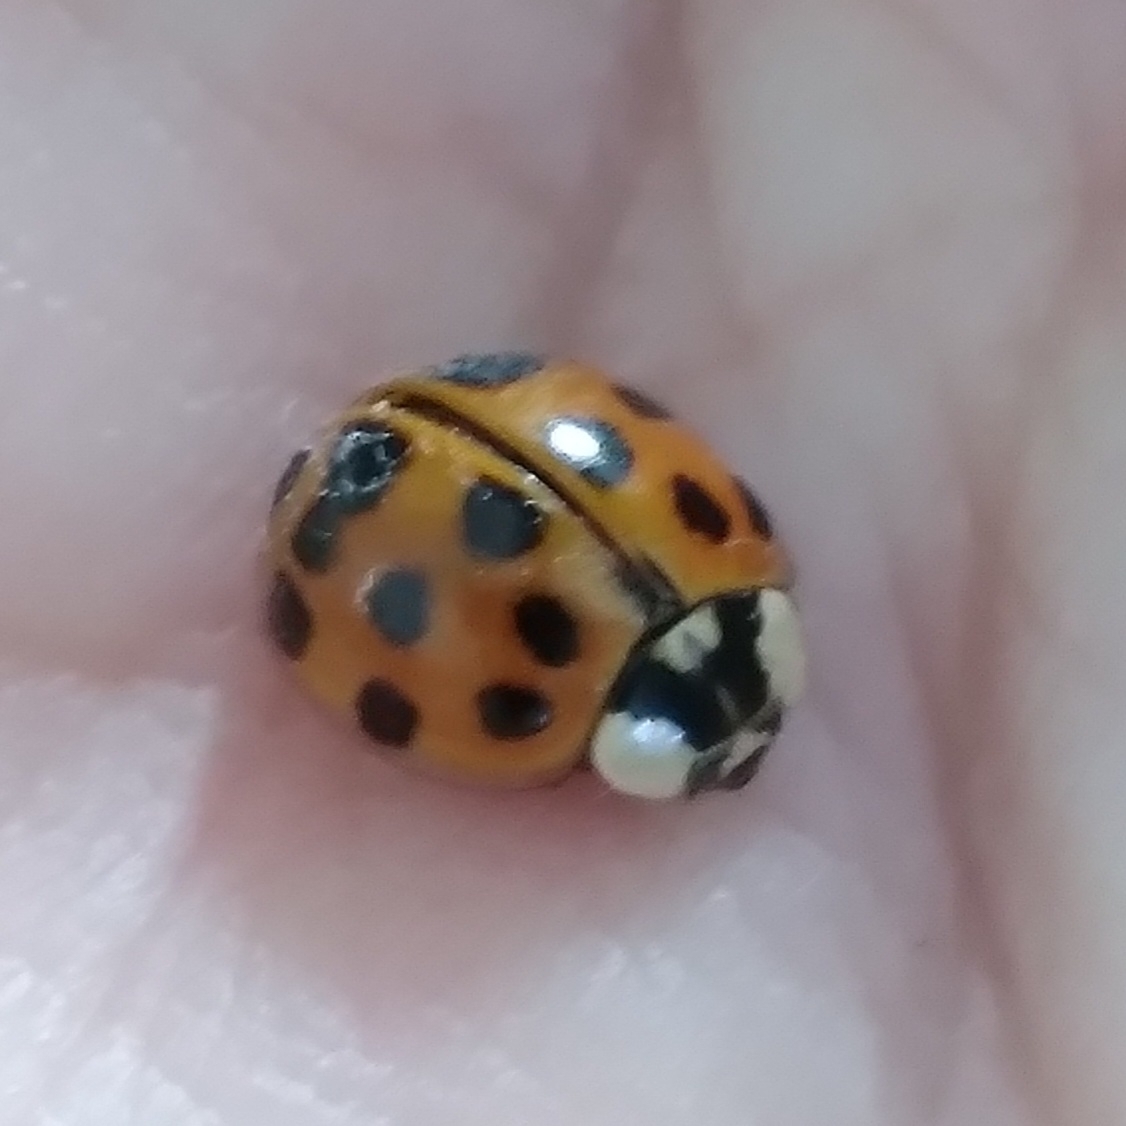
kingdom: Animalia
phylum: Arthropoda
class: Insecta
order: Coleoptera
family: Coccinellidae
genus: Harmonia
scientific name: Harmonia axyridis
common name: Harlequin ladybird
